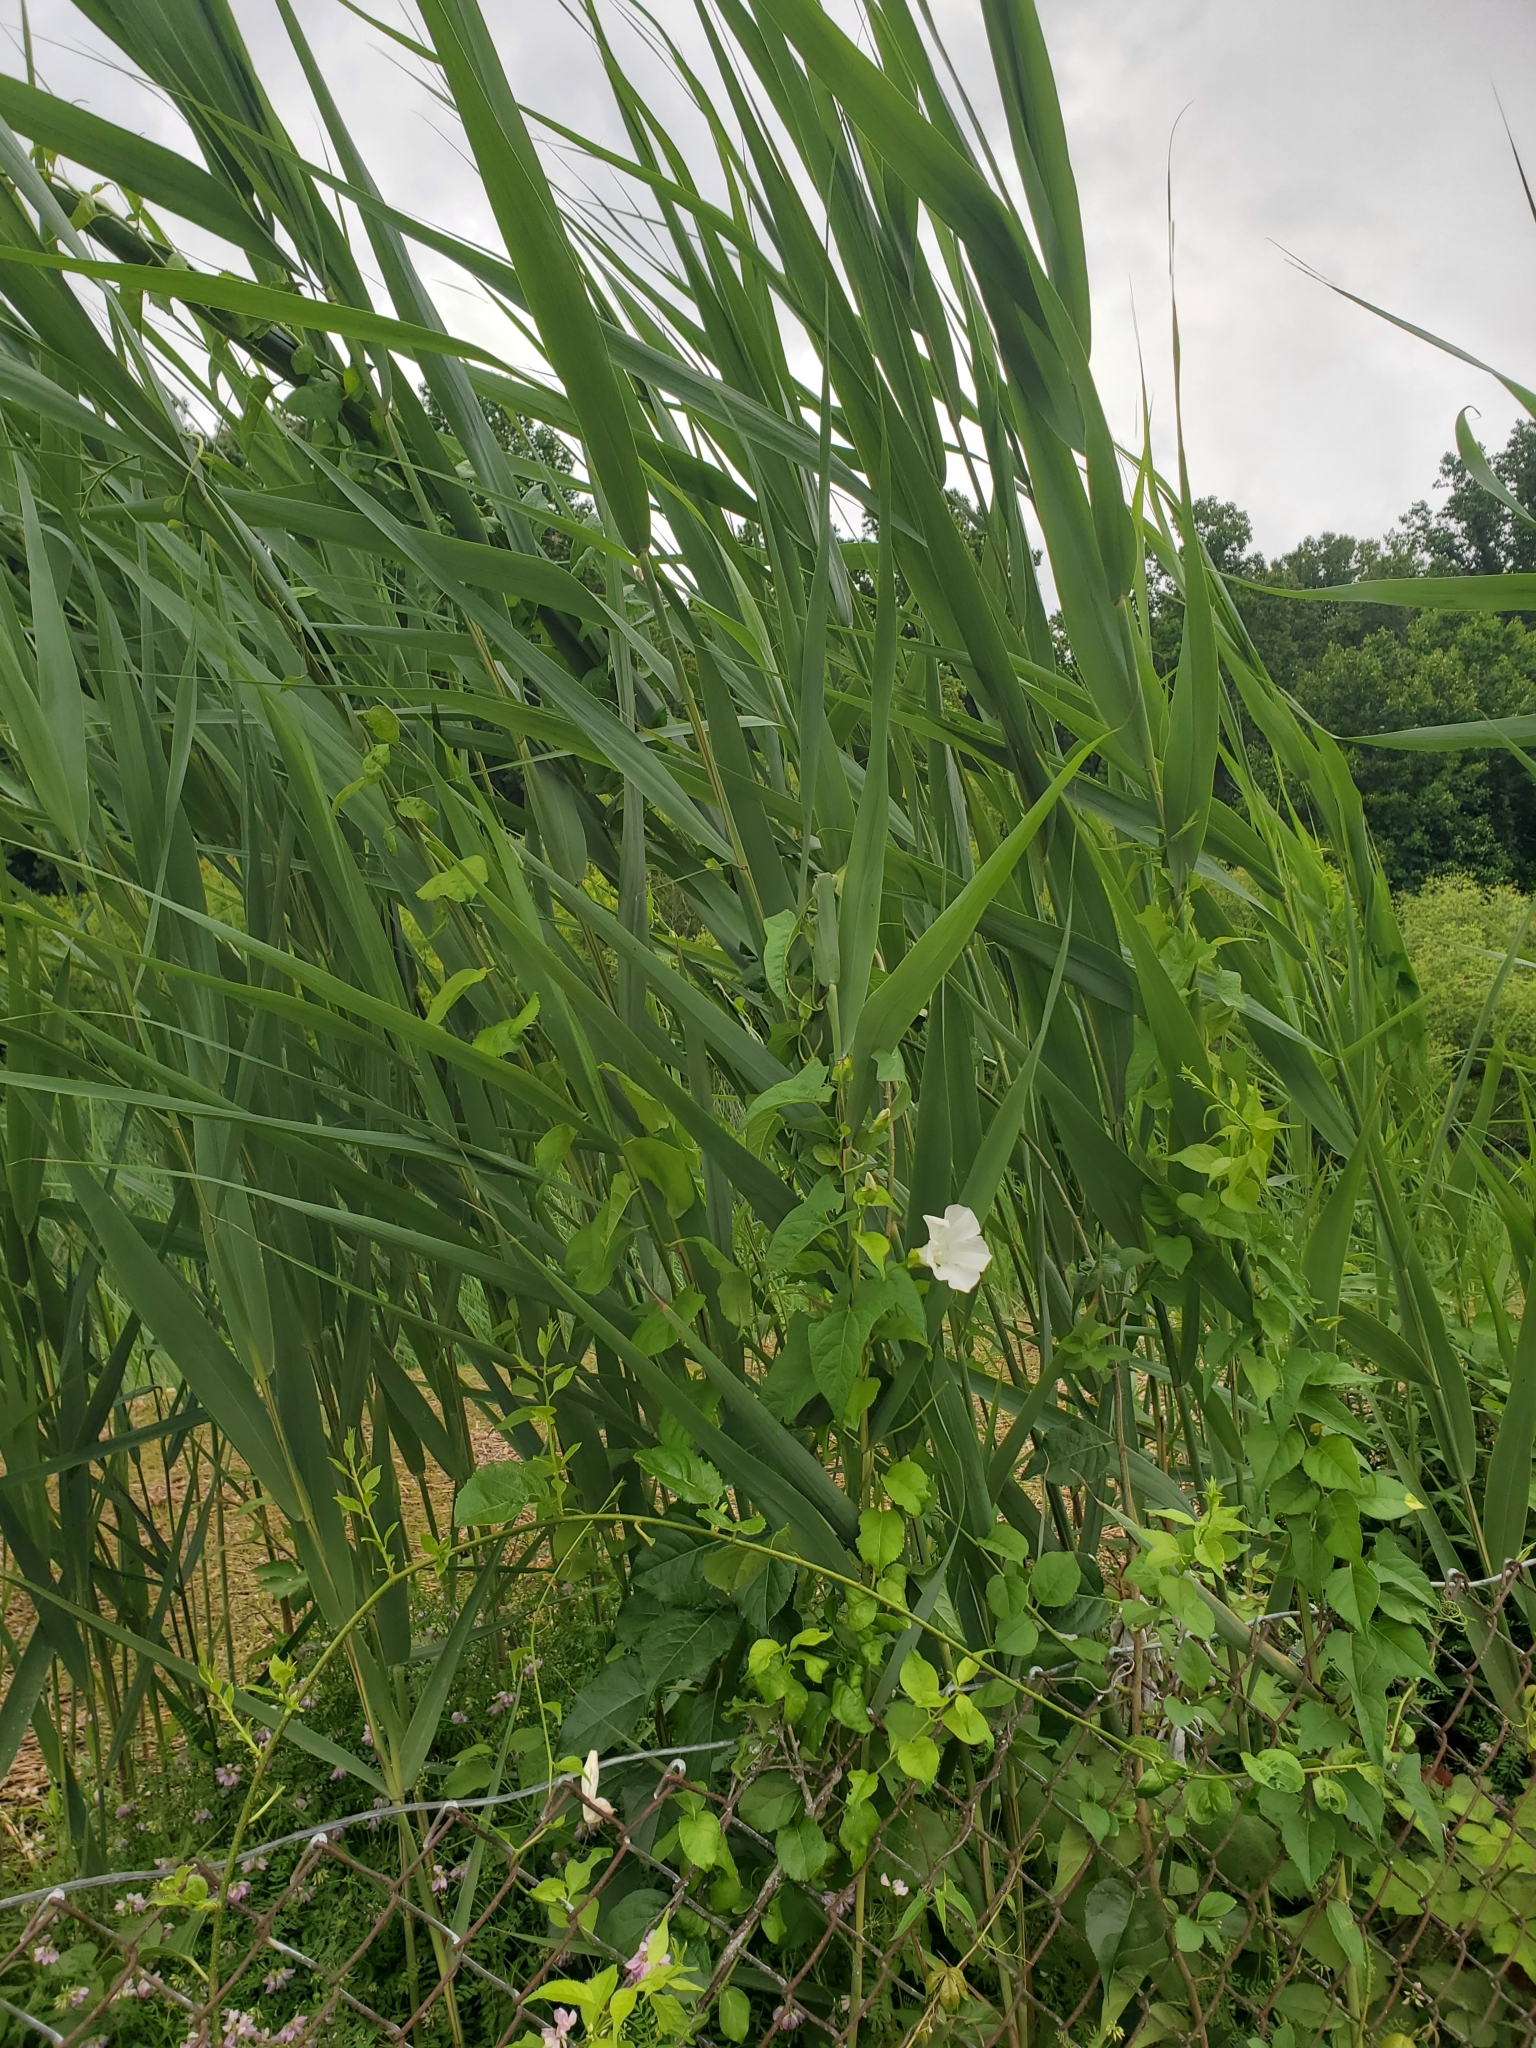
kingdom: Plantae
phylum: Tracheophyta
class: Liliopsida
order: Poales
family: Poaceae
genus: Phragmites
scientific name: Phragmites australis
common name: Common reed
